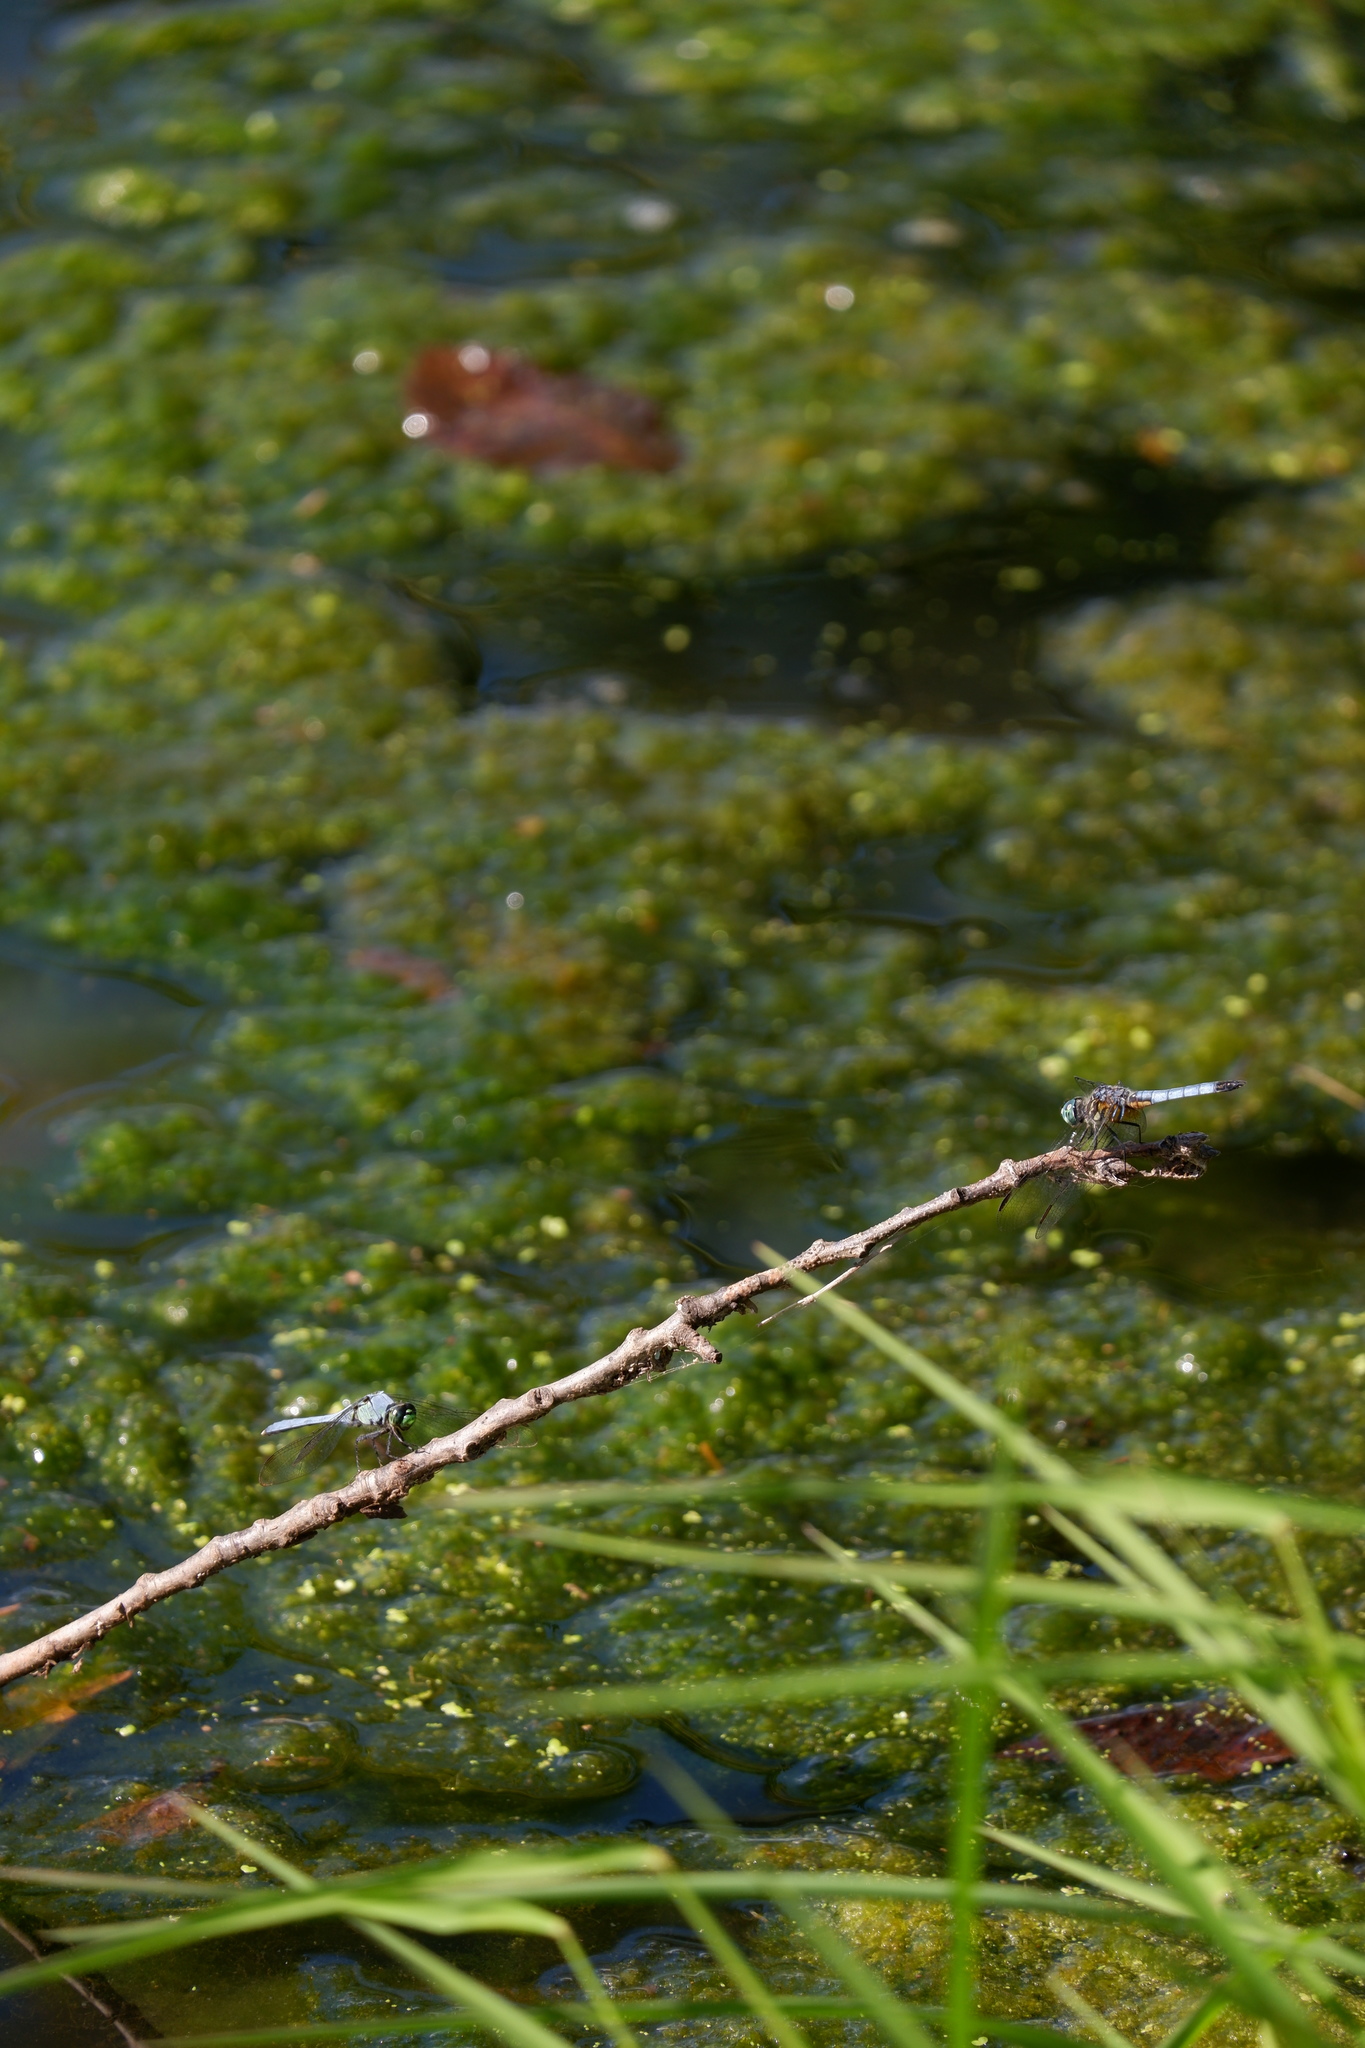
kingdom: Animalia
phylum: Arthropoda
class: Insecta
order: Odonata
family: Libellulidae
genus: Pachydiplax
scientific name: Pachydiplax longipennis
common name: Blue dasher
